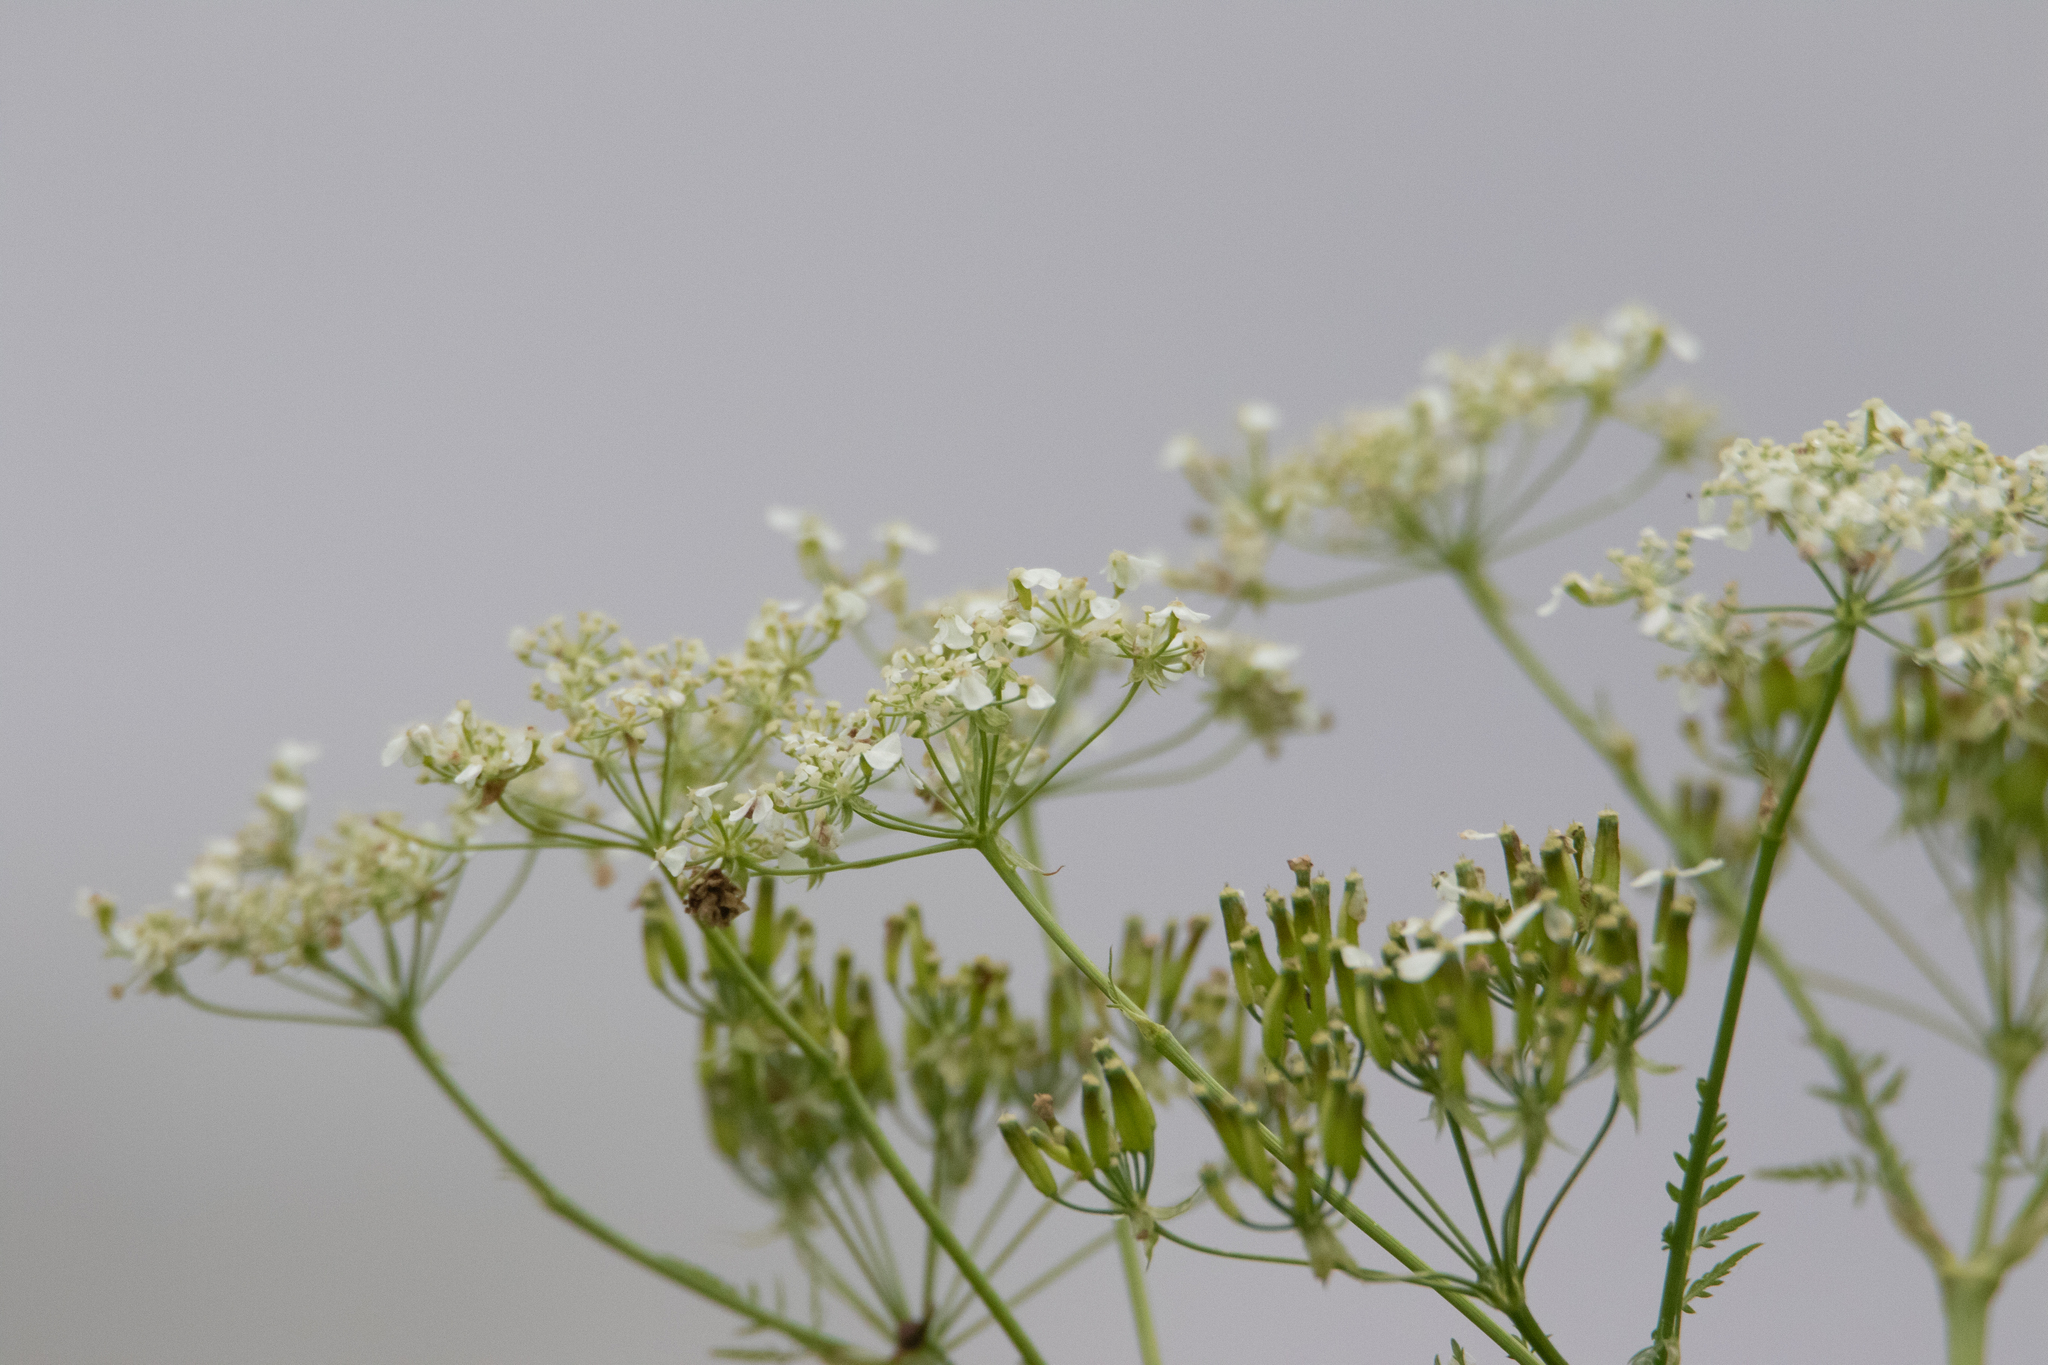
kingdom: Plantae
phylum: Tracheophyta
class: Magnoliopsida
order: Apiales
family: Apiaceae
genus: Anthriscus
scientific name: Anthriscus sylvestris
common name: Cow parsley
